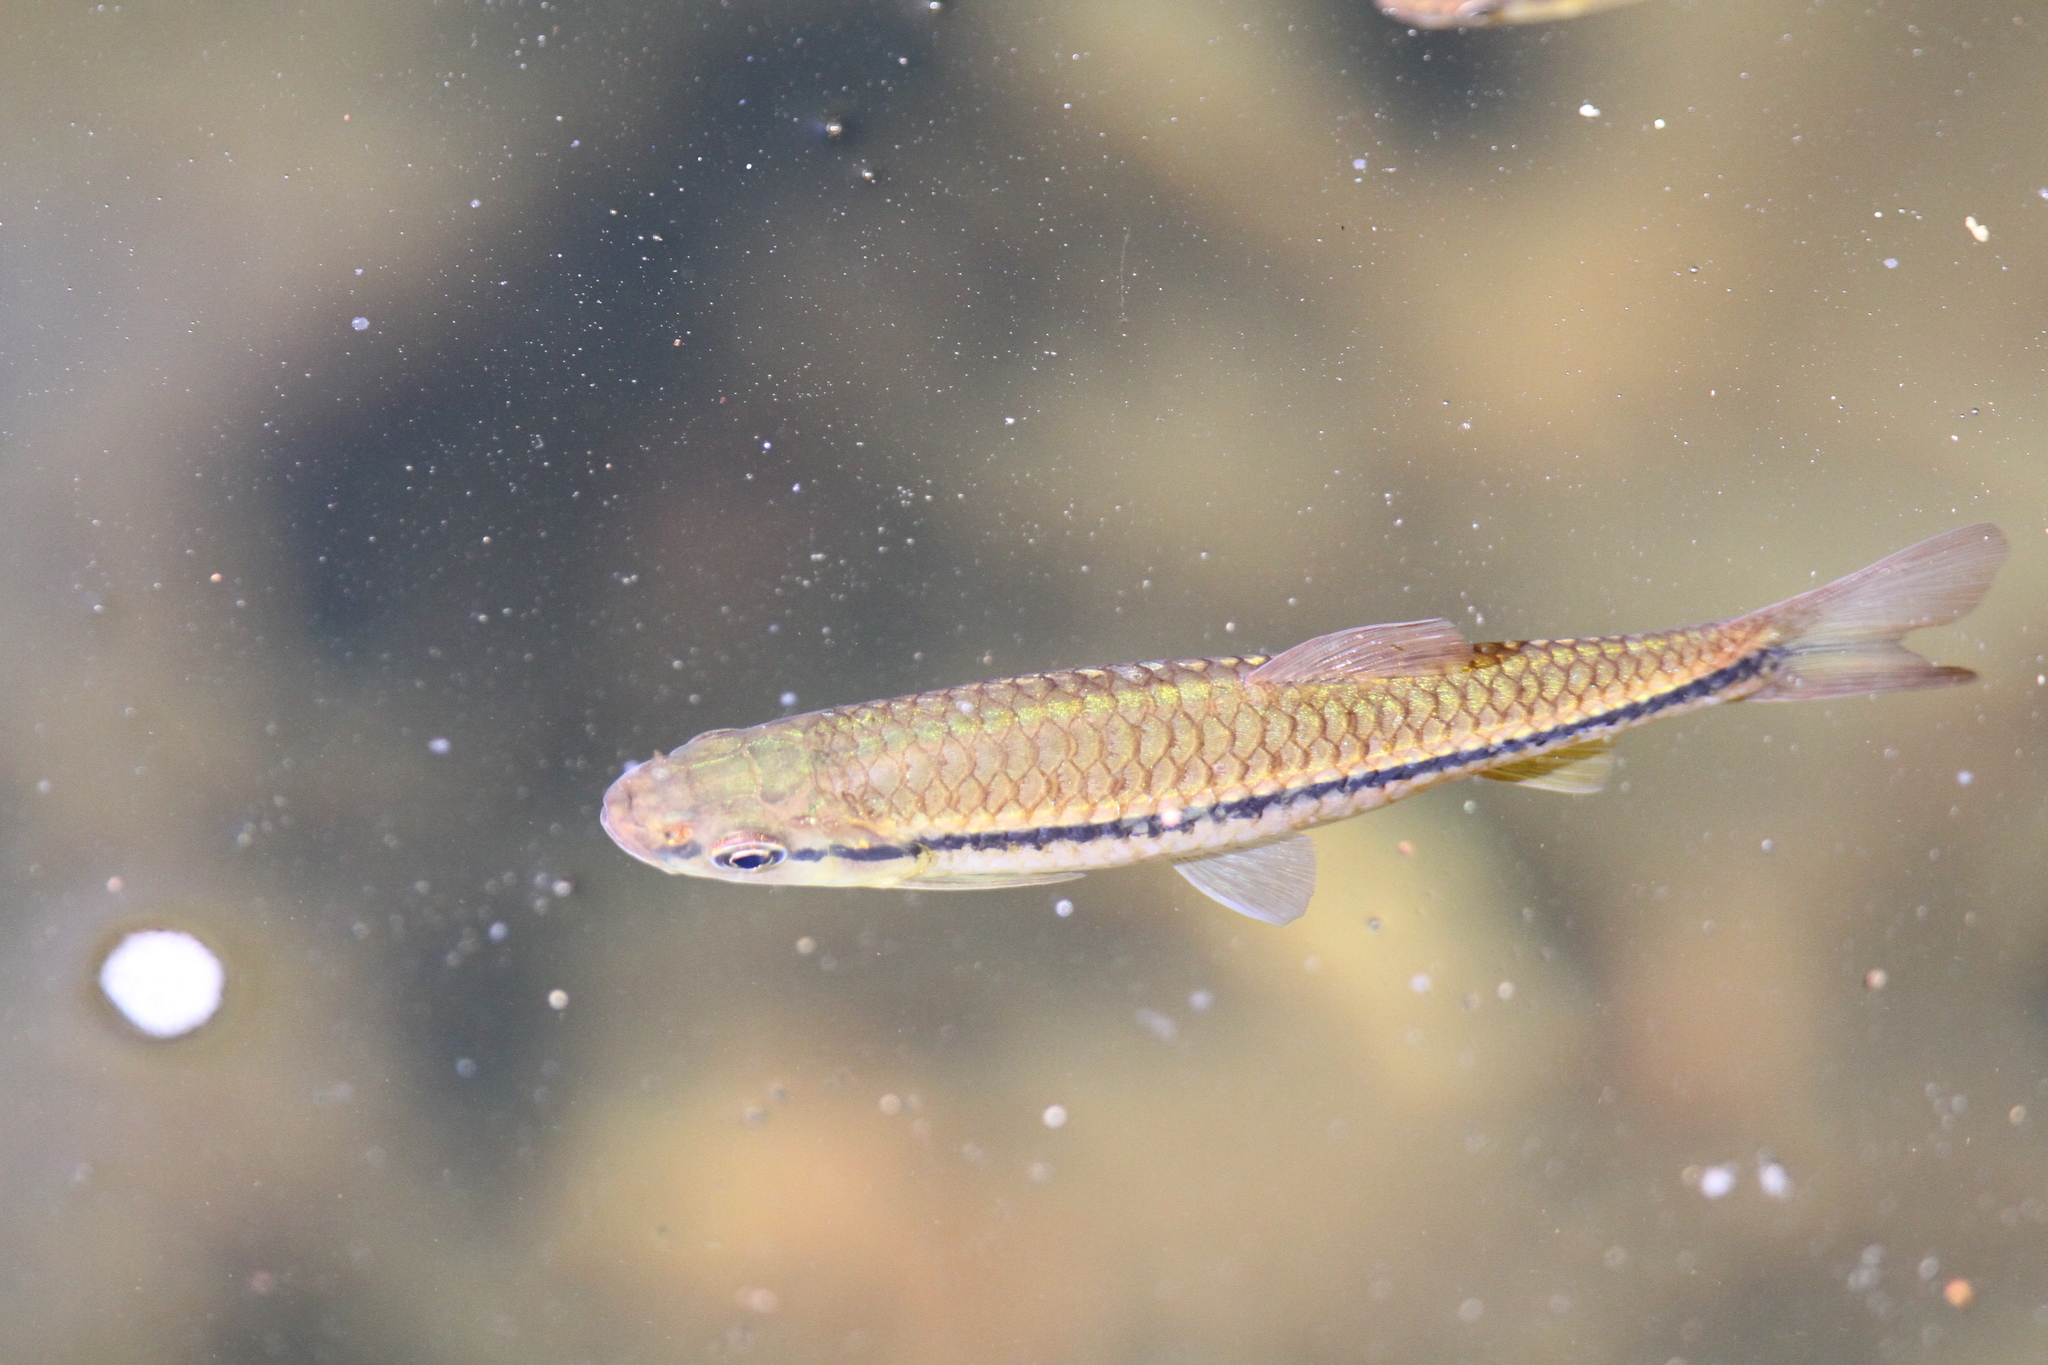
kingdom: Animalia
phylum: Chordata
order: Cypriniformes
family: Cyprinidae
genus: Rasbora
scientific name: Rasbora dandia
